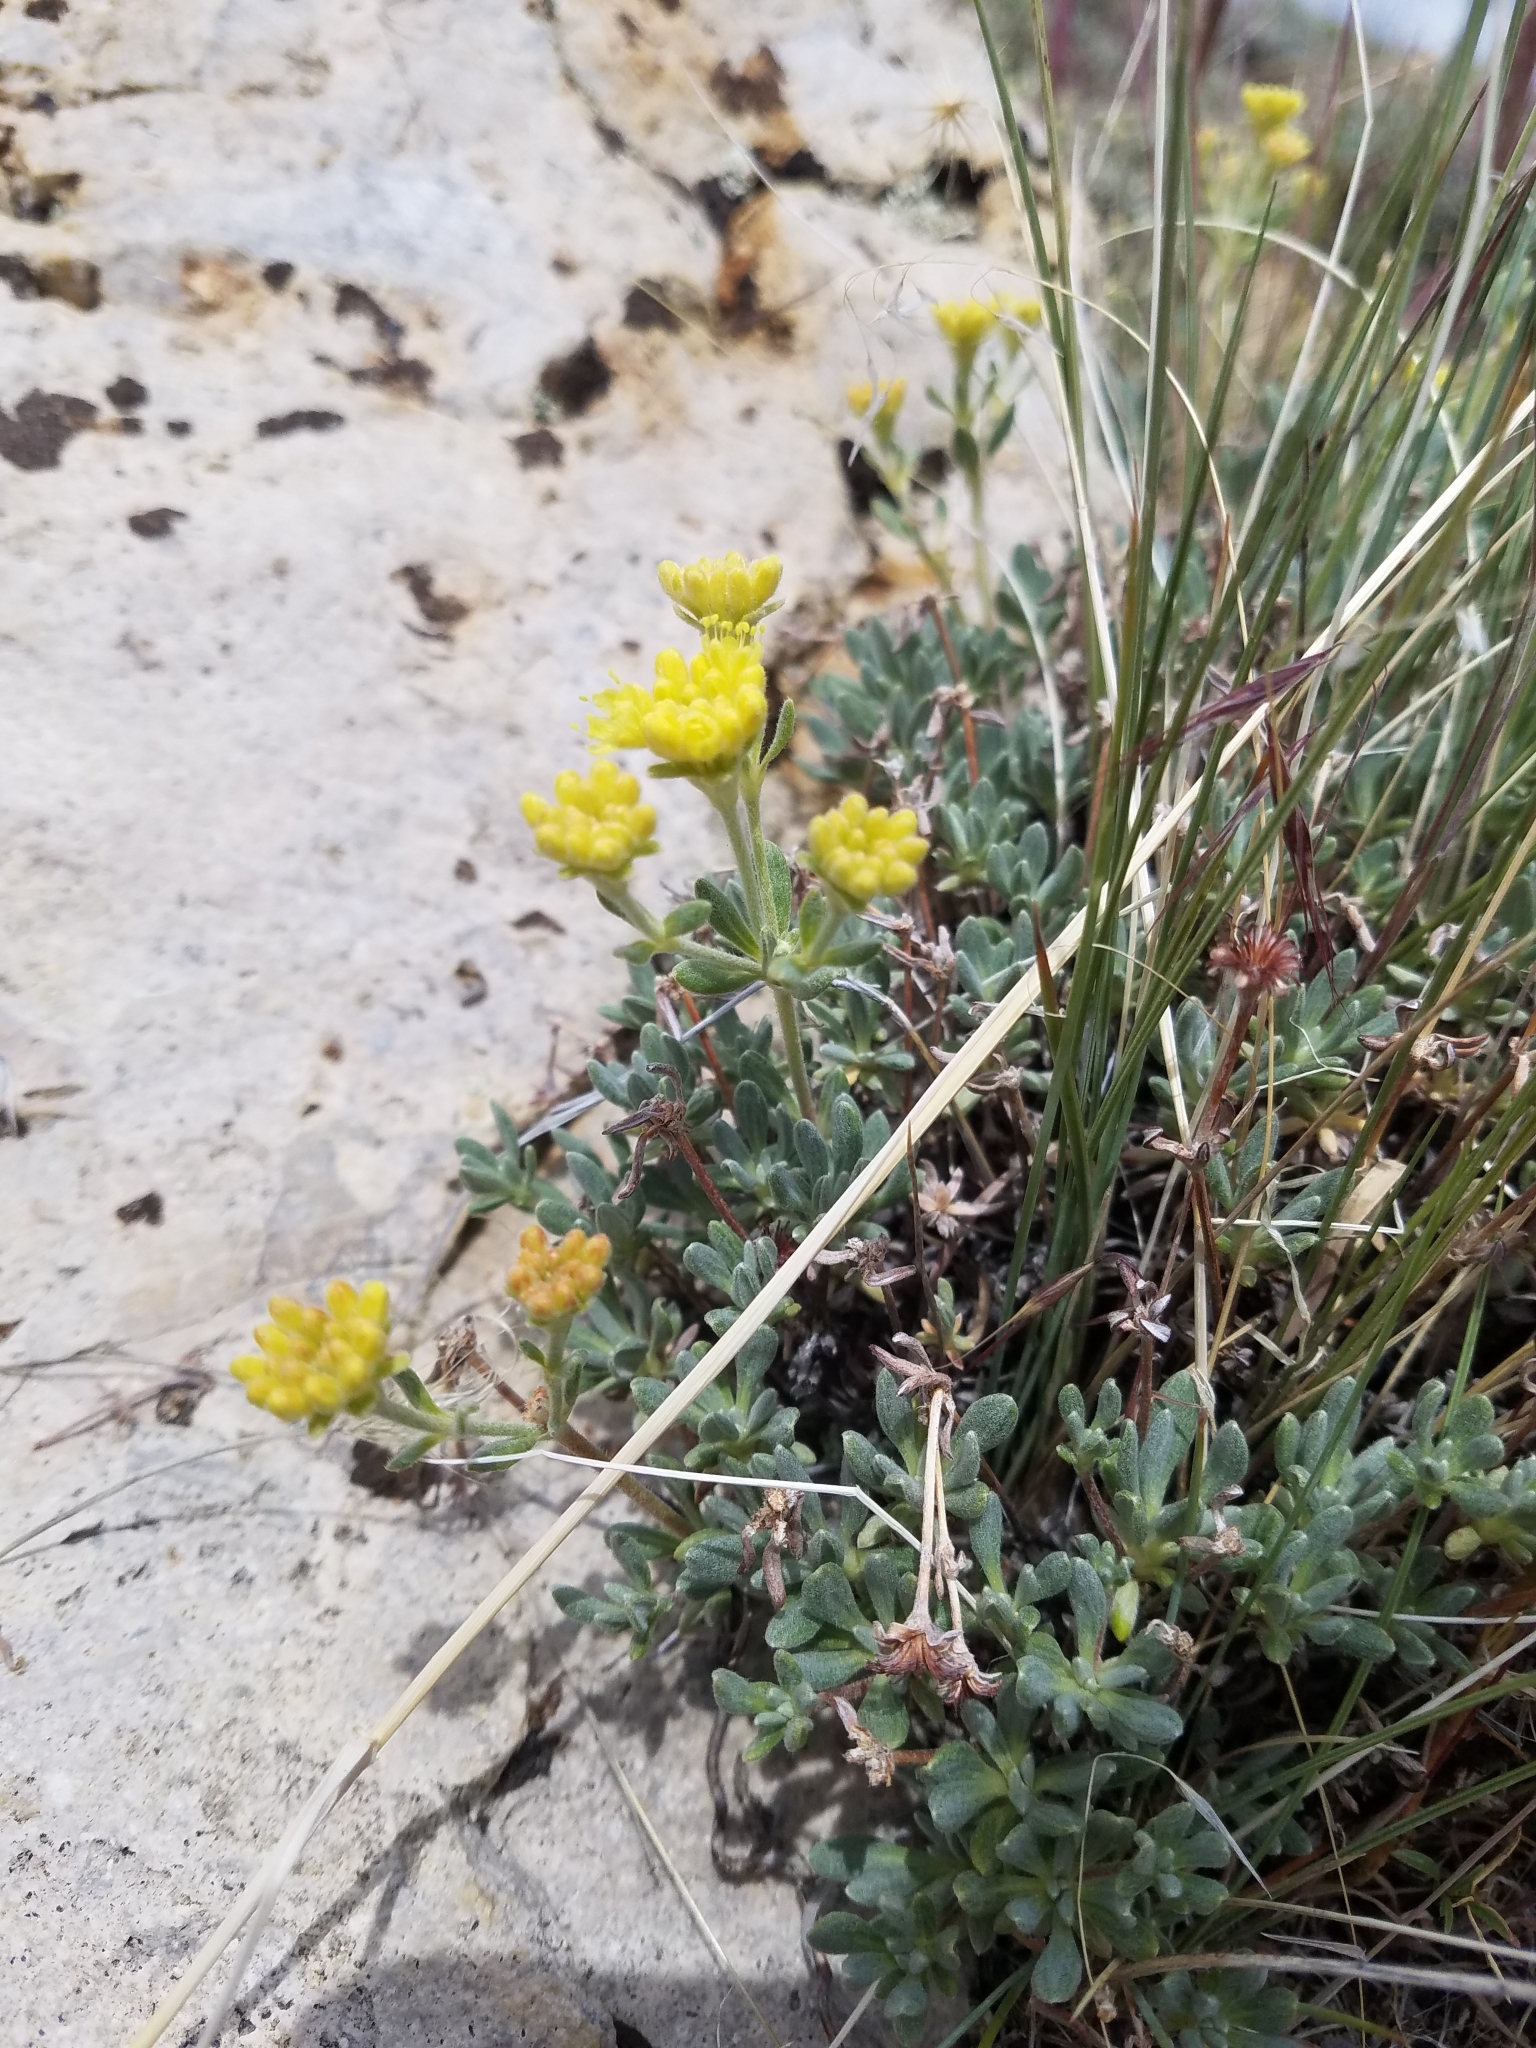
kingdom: Plantae
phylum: Tracheophyta
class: Magnoliopsida
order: Caryophyllales
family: Polygonaceae
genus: Eriogonum
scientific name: Eriogonum sphaerocephalum
